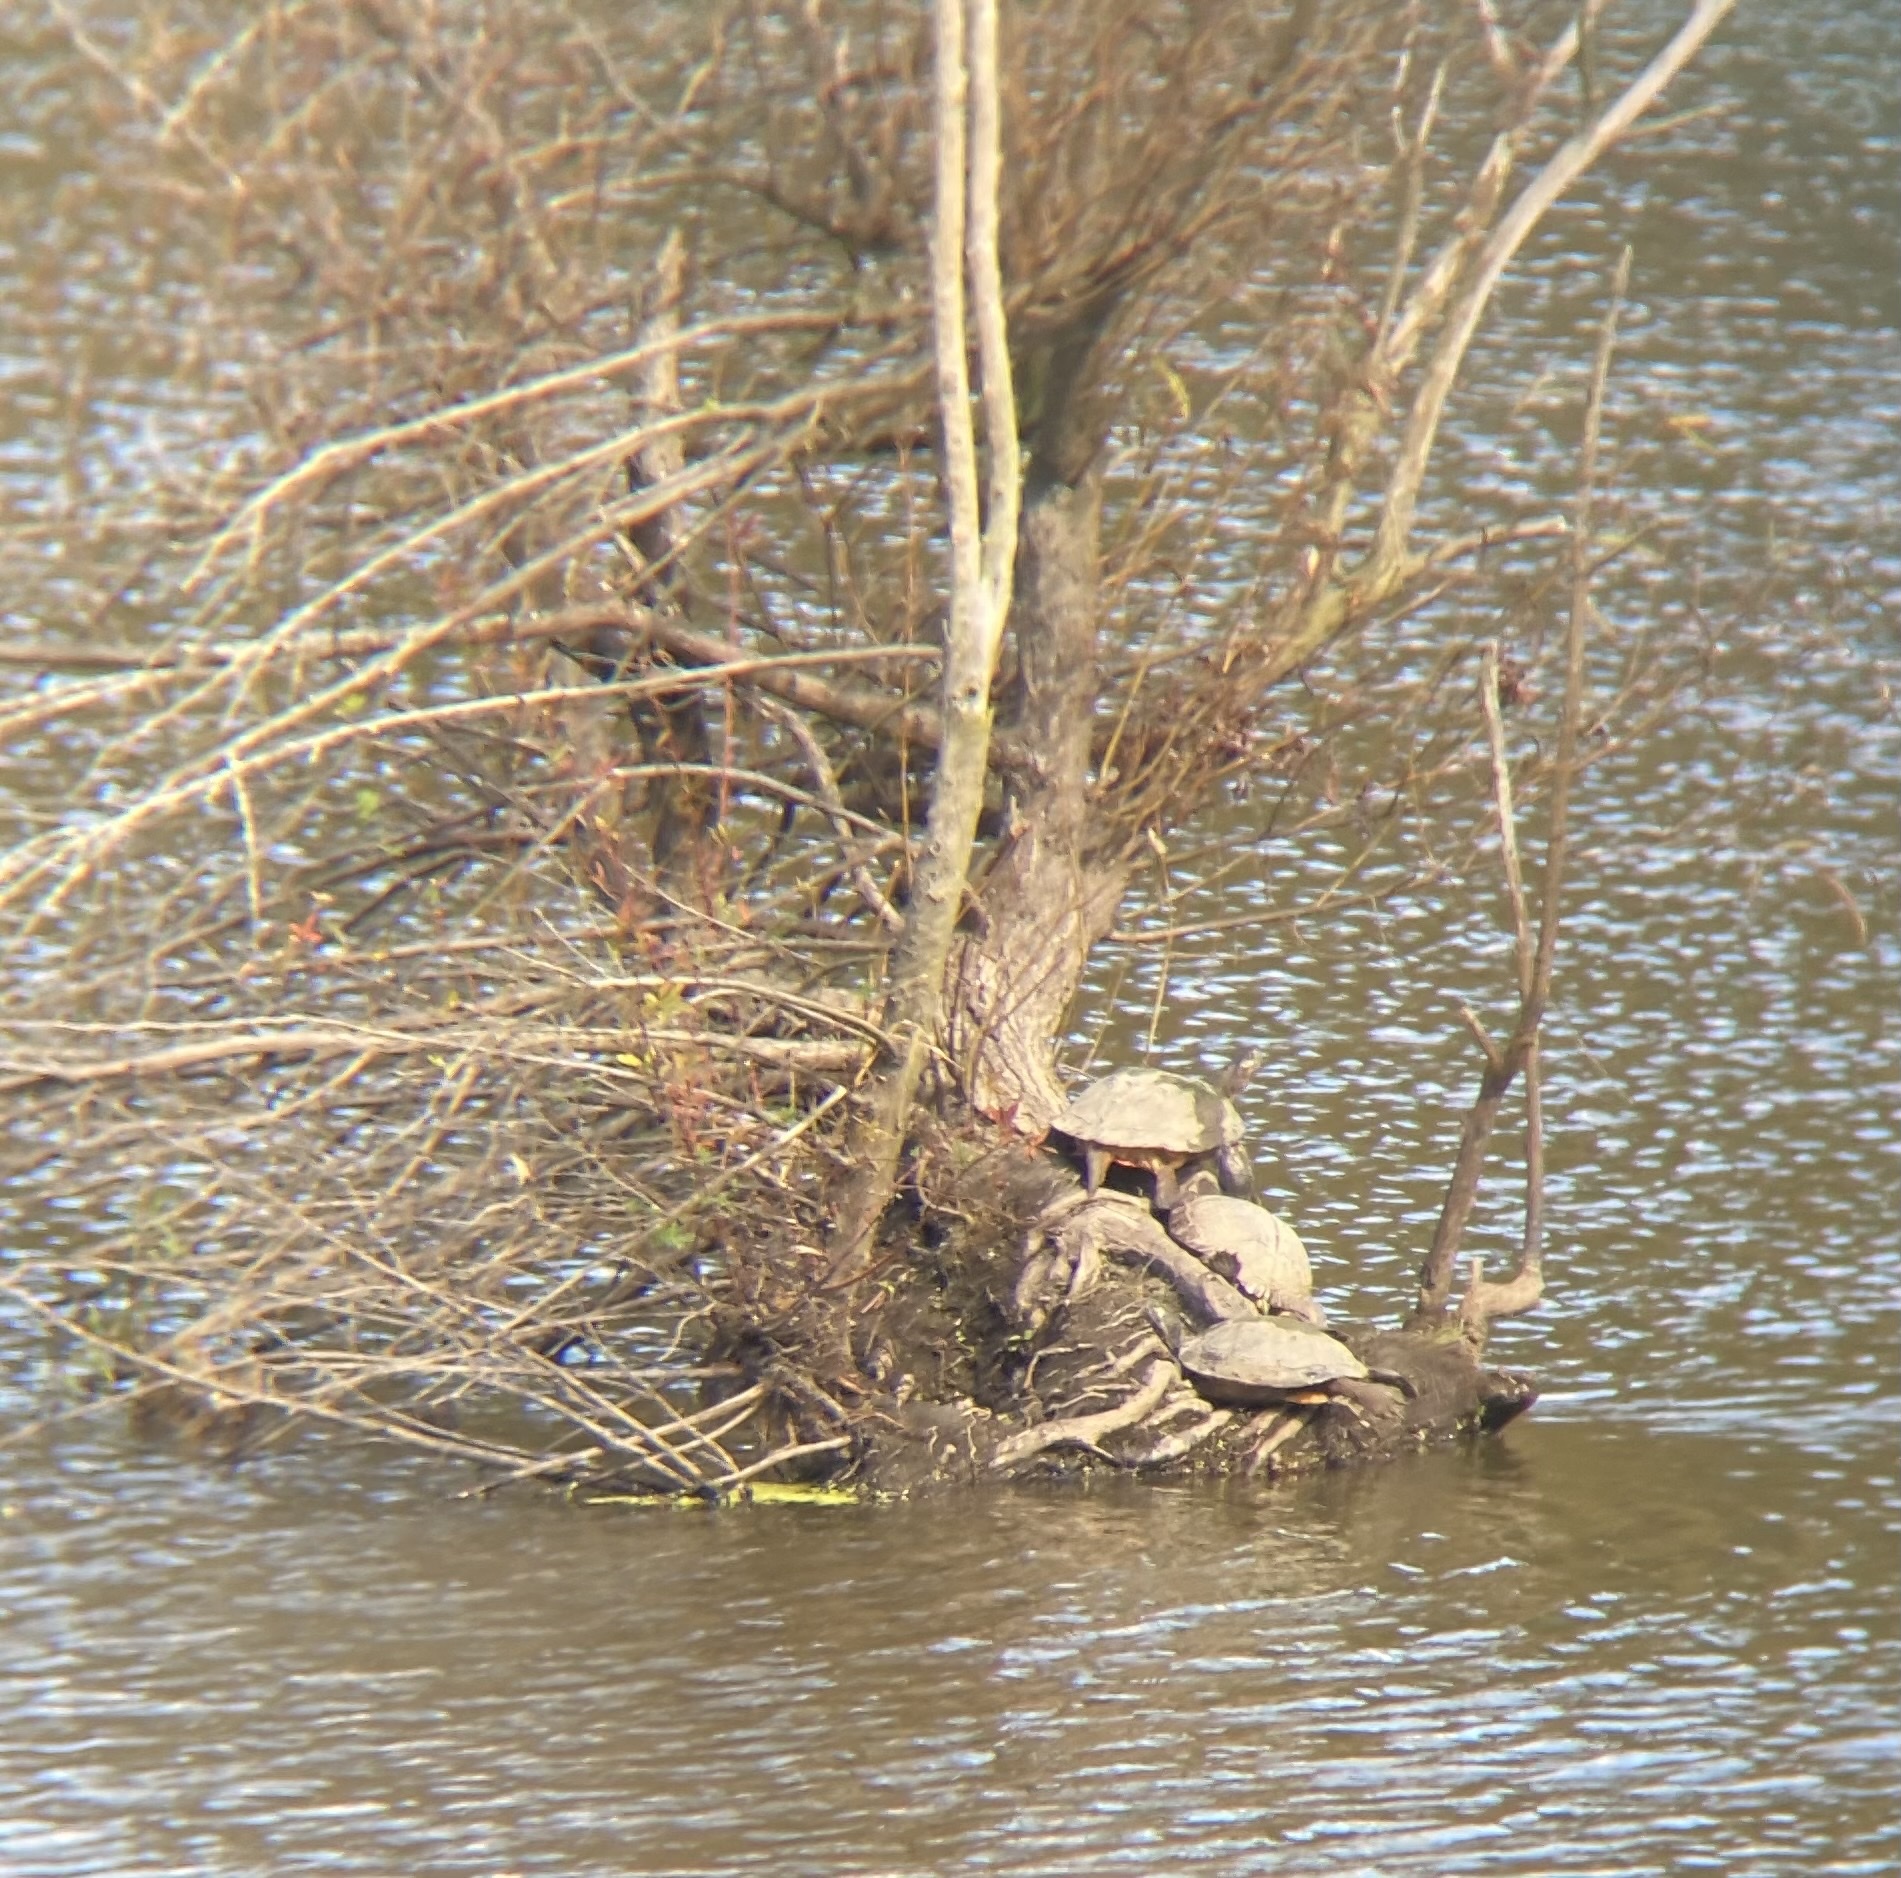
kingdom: Animalia
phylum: Chordata
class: Testudines
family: Emydidae
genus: Trachemys
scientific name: Trachemys scripta
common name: Slider
